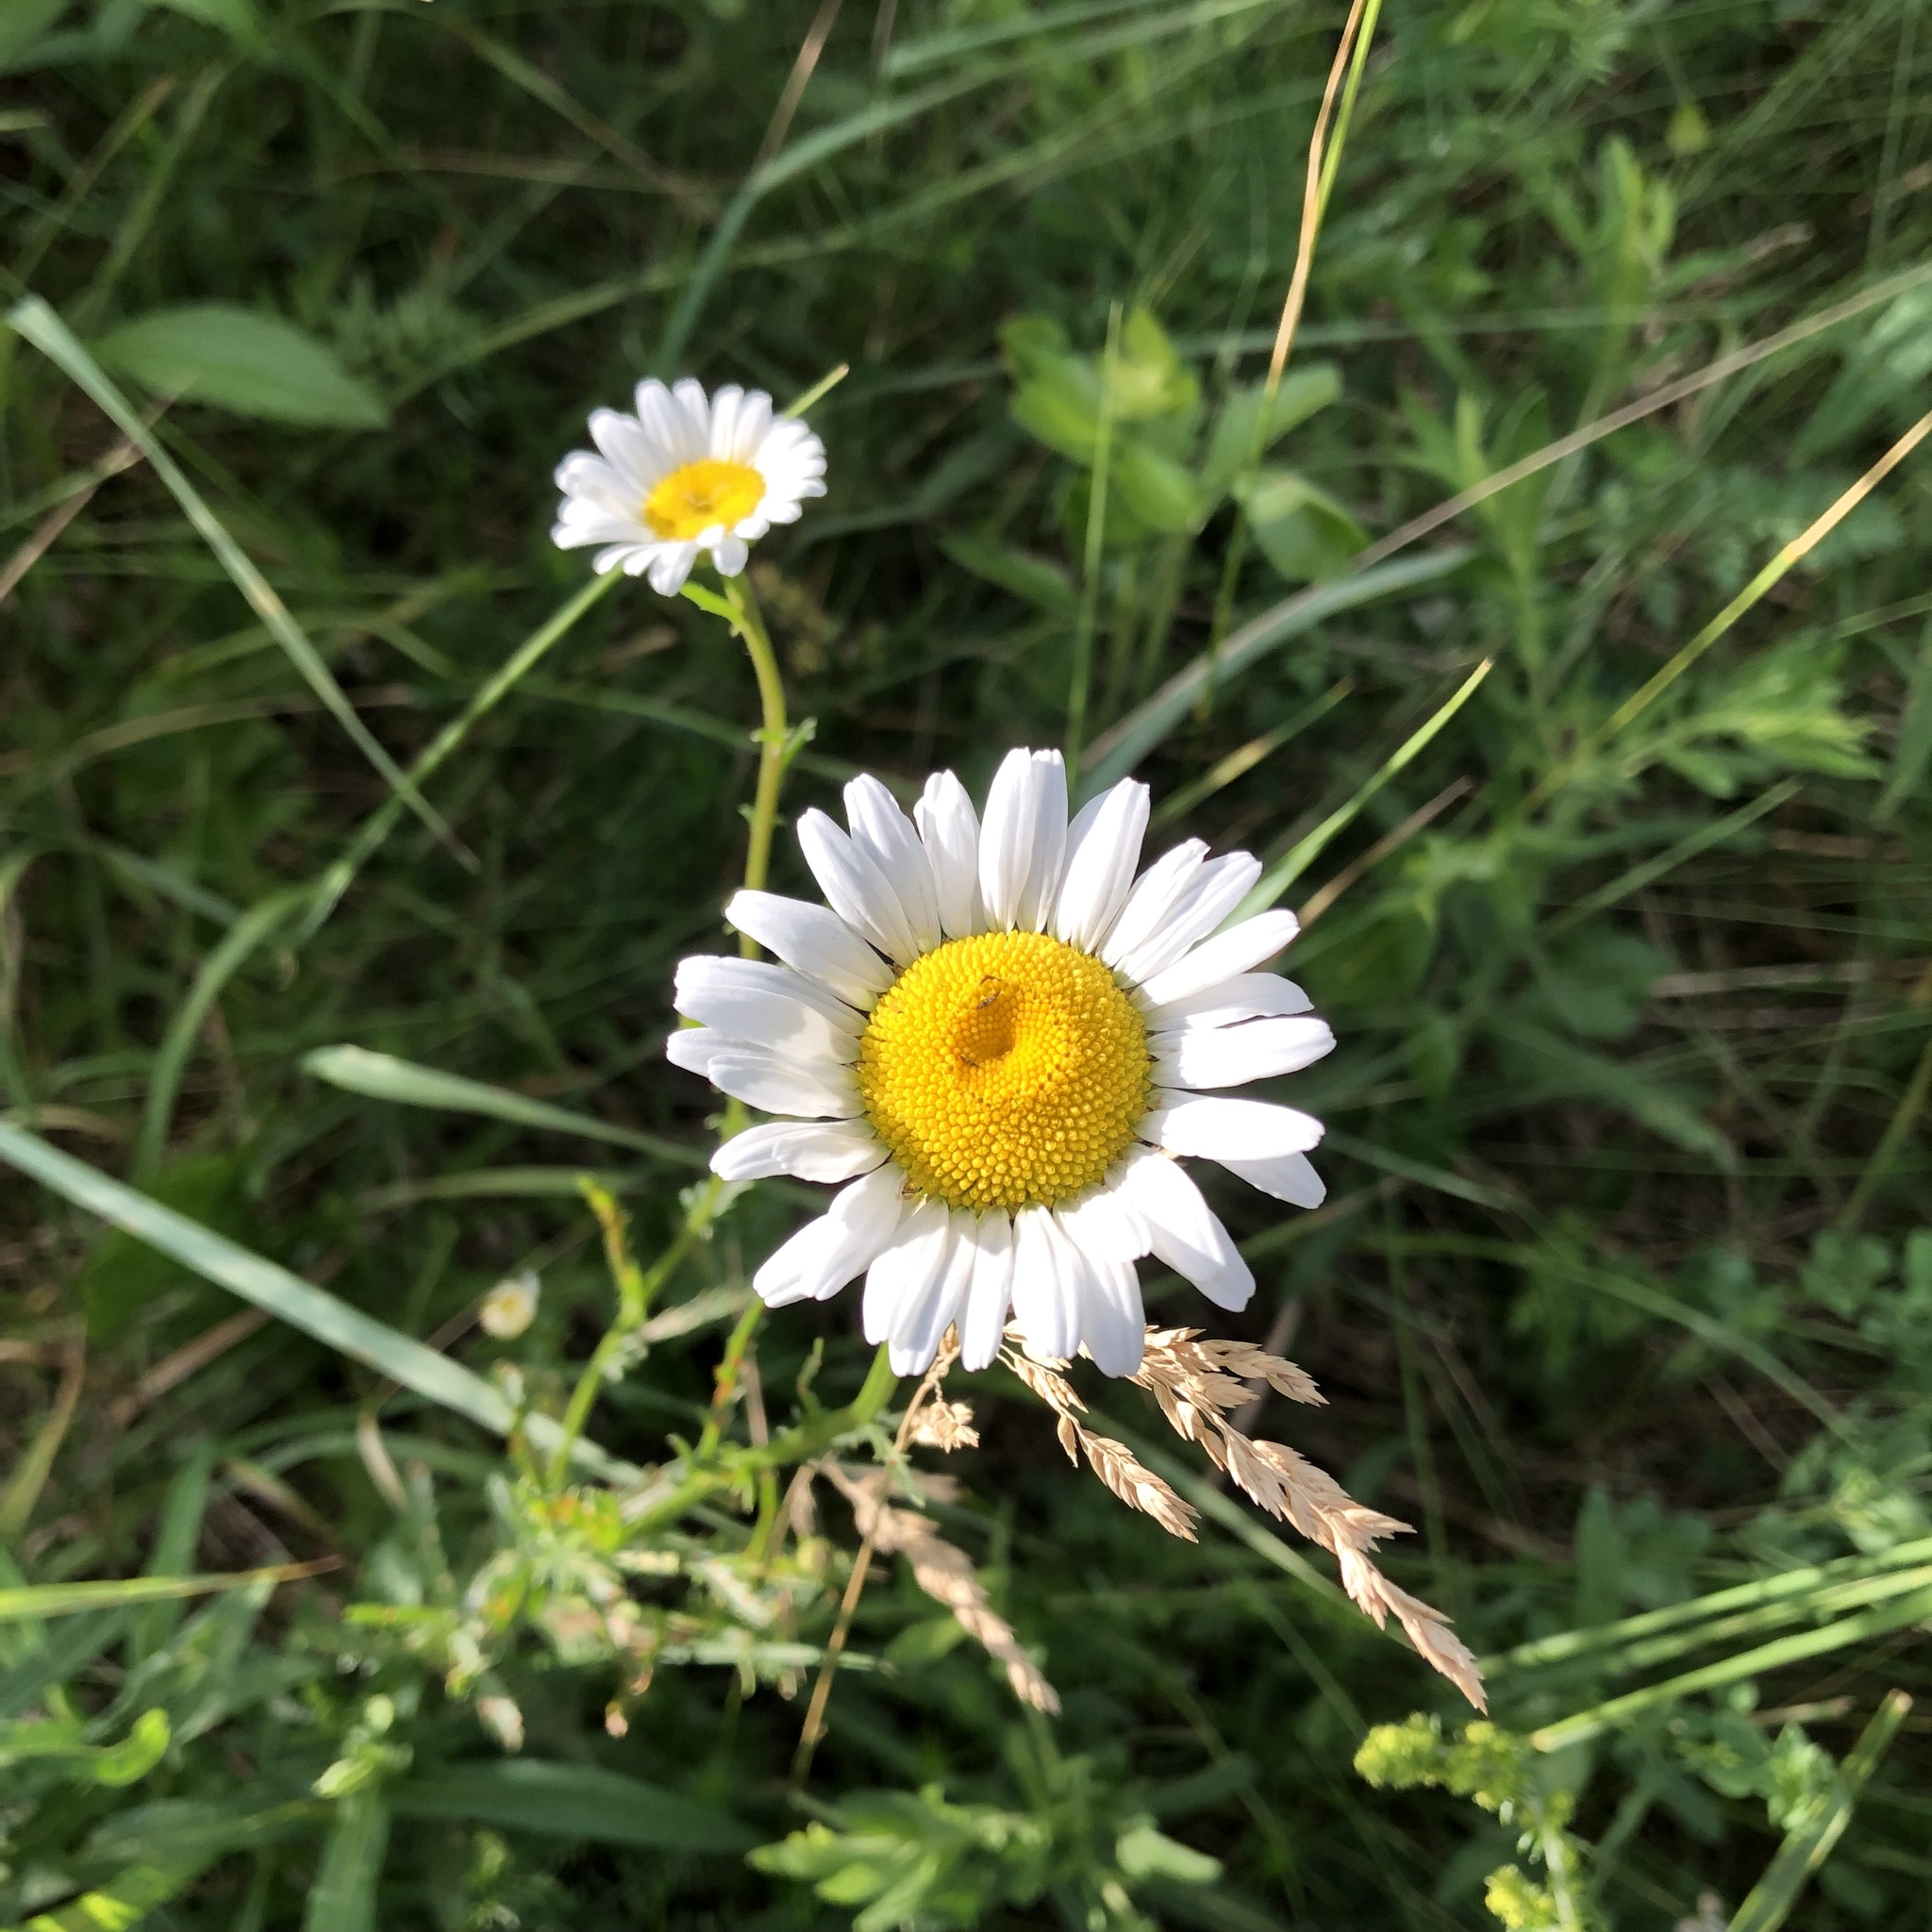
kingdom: Plantae
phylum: Tracheophyta
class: Magnoliopsida
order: Asterales
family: Asteraceae
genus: Leucanthemum
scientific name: Leucanthemum vulgare
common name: Oxeye daisy
